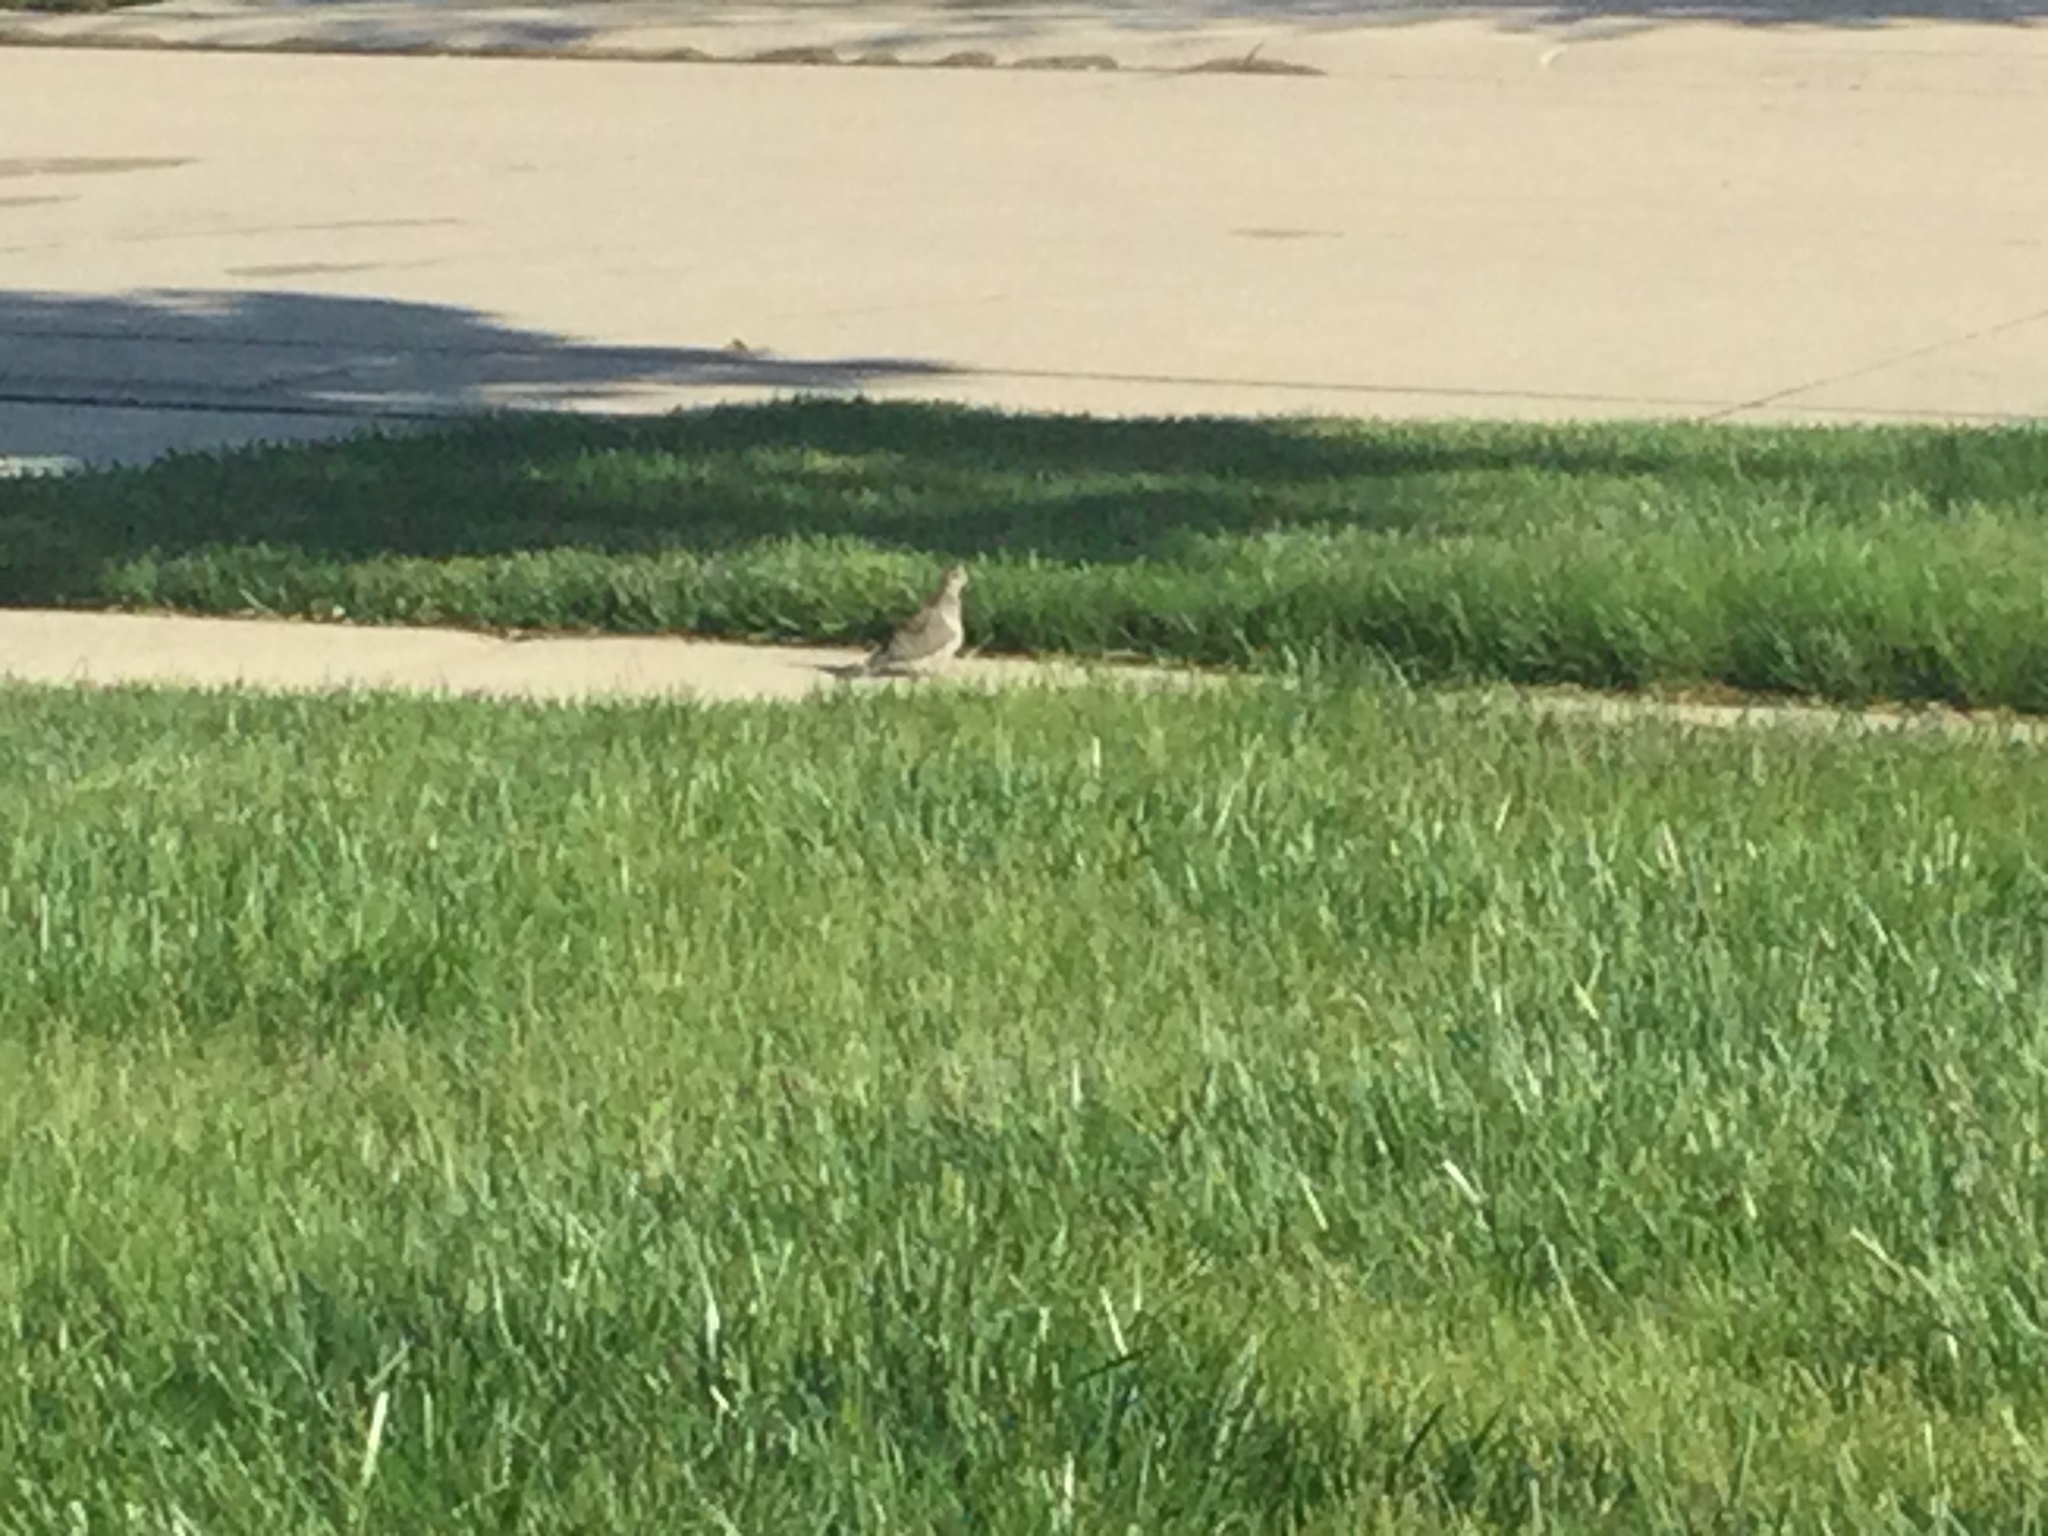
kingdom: Animalia
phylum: Chordata
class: Aves
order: Columbiformes
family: Columbidae
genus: Zenaida
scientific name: Zenaida macroura
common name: Mourning dove
